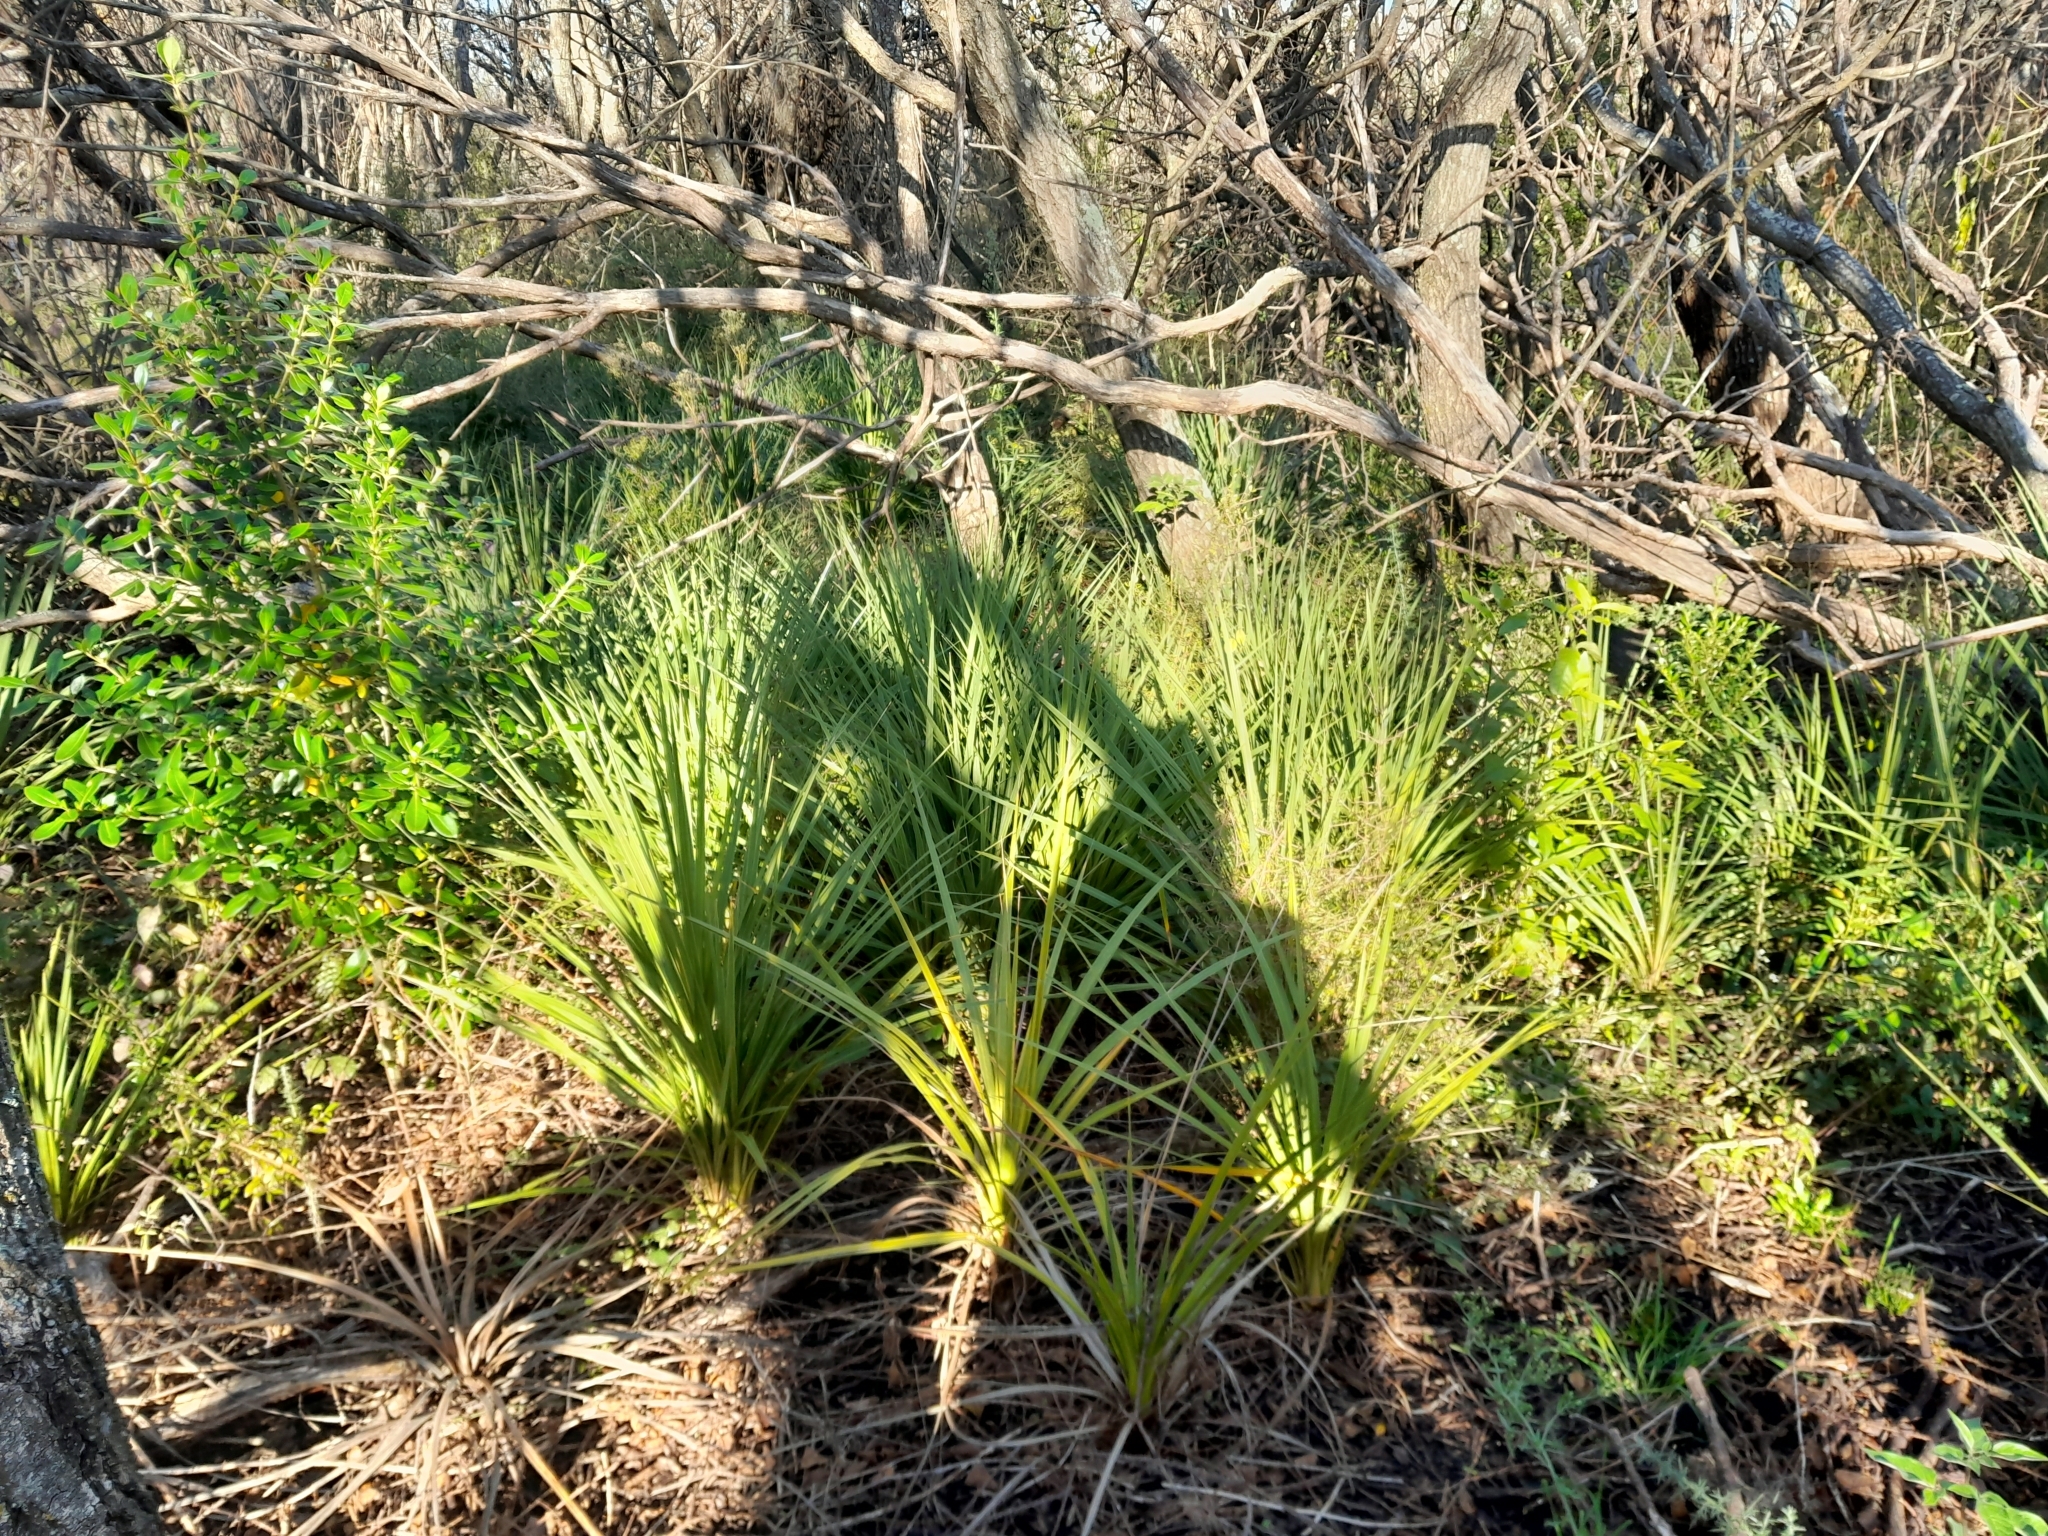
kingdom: Plantae
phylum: Tracheophyta
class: Liliopsida
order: Asparagales
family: Asparagaceae
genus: Cordyline
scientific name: Cordyline australis
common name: Cabbage-palm
